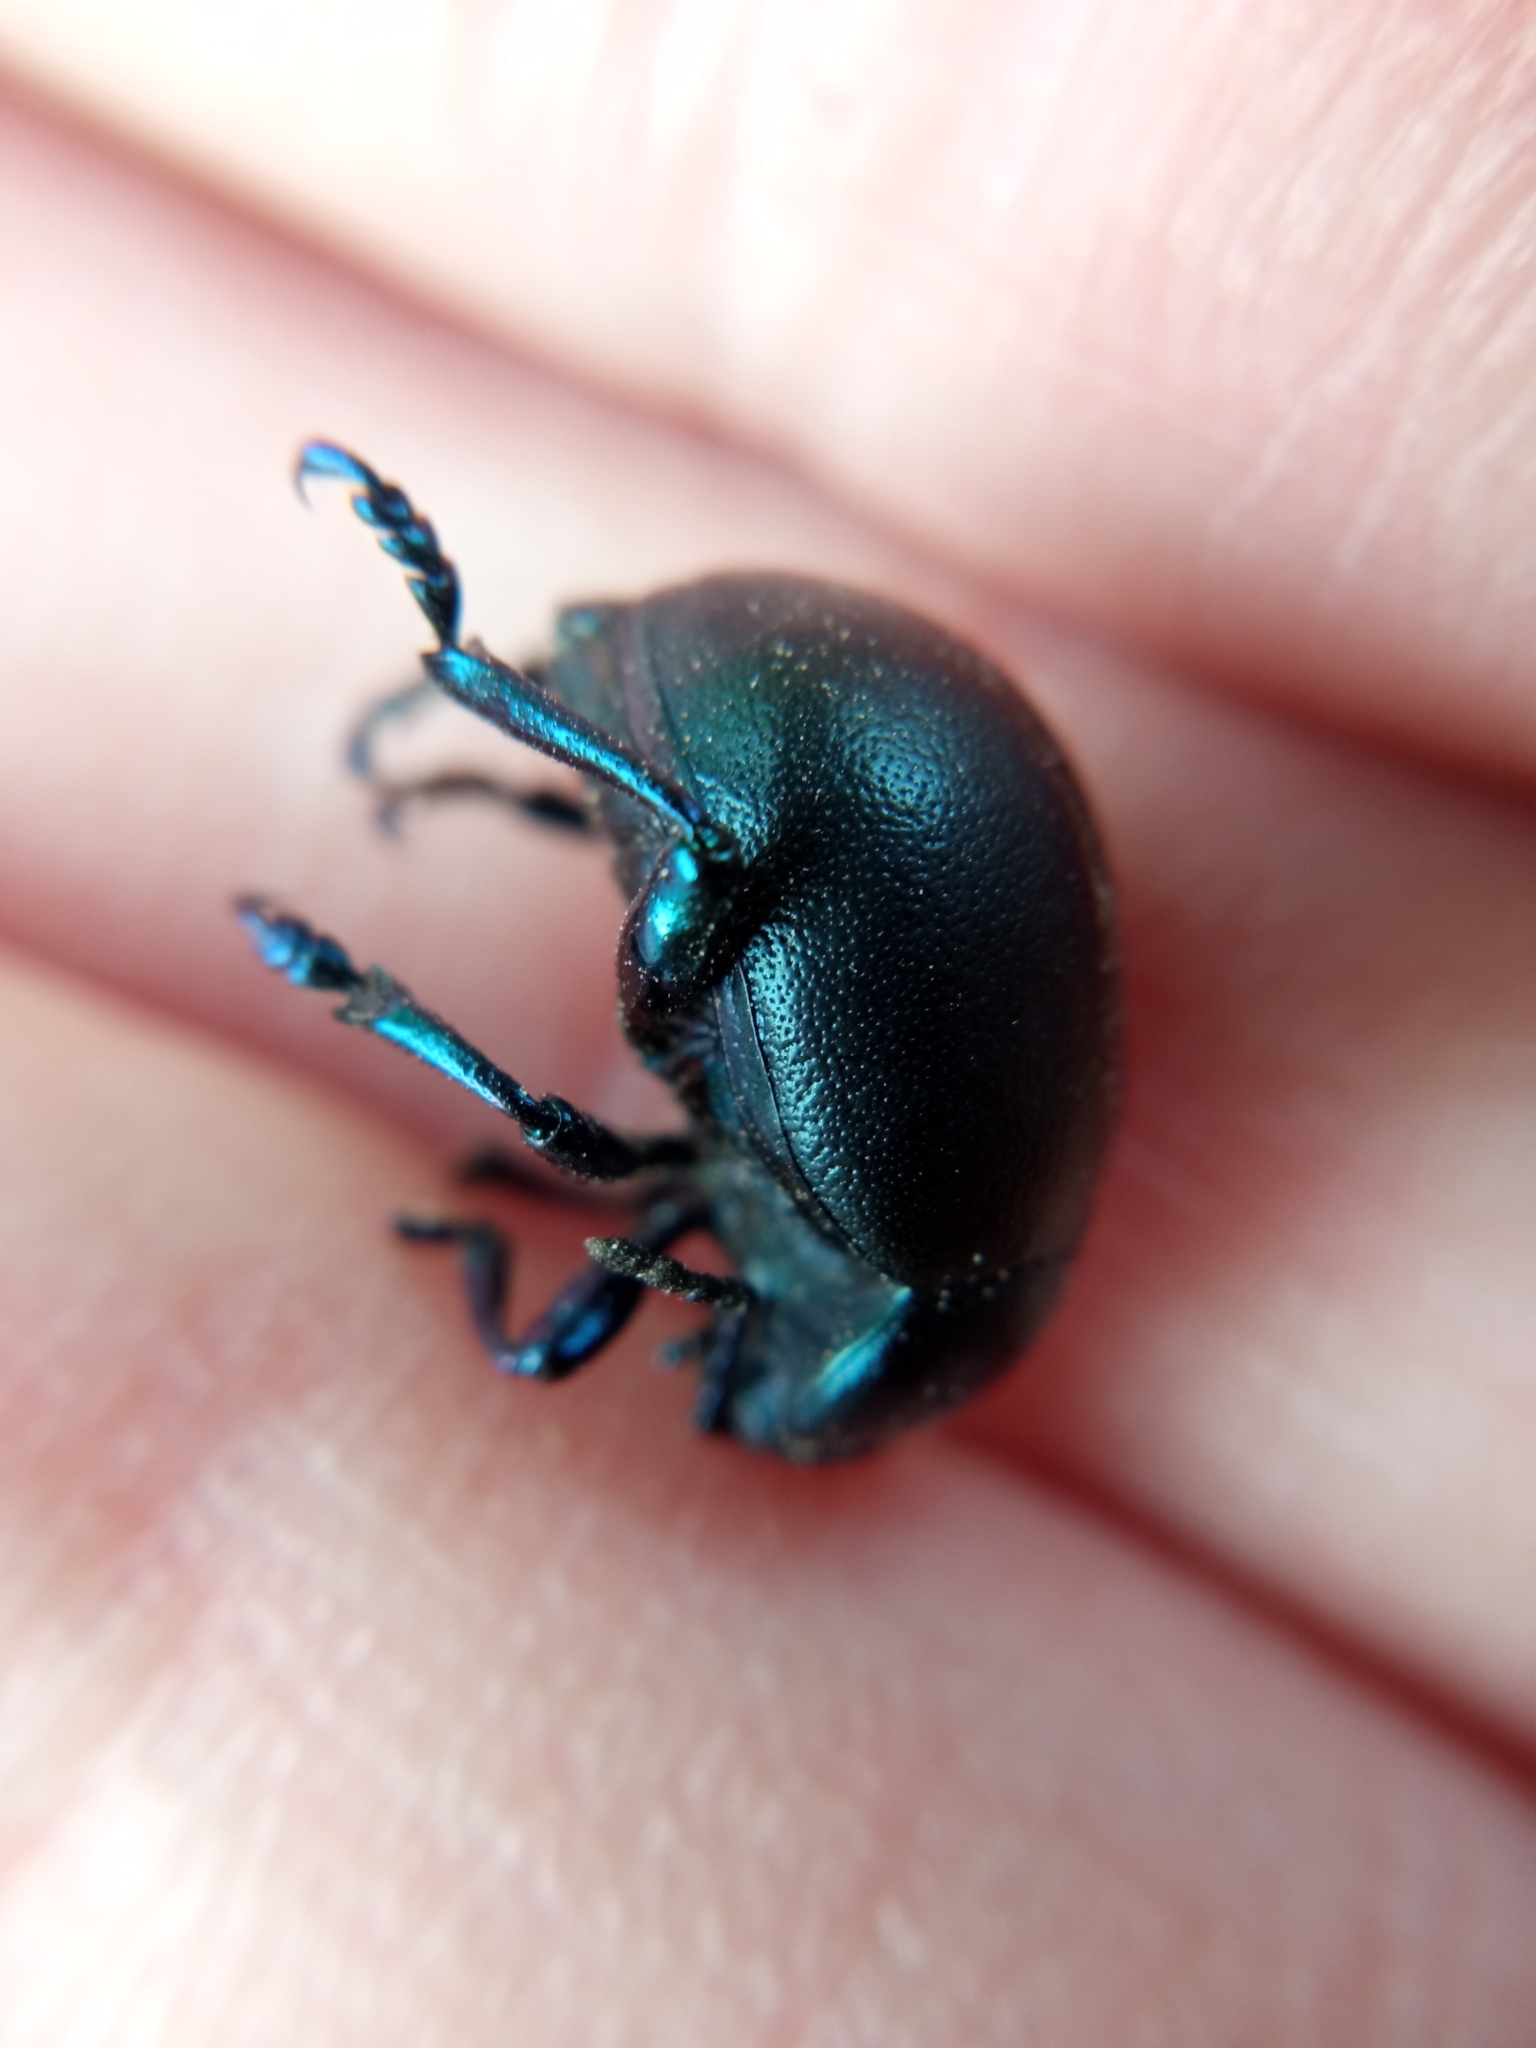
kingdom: Animalia
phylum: Arthropoda
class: Insecta
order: Coleoptera
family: Chrysomelidae
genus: Timarcha
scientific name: Timarcha goettingensis
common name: Small bloody-nosed beetle
